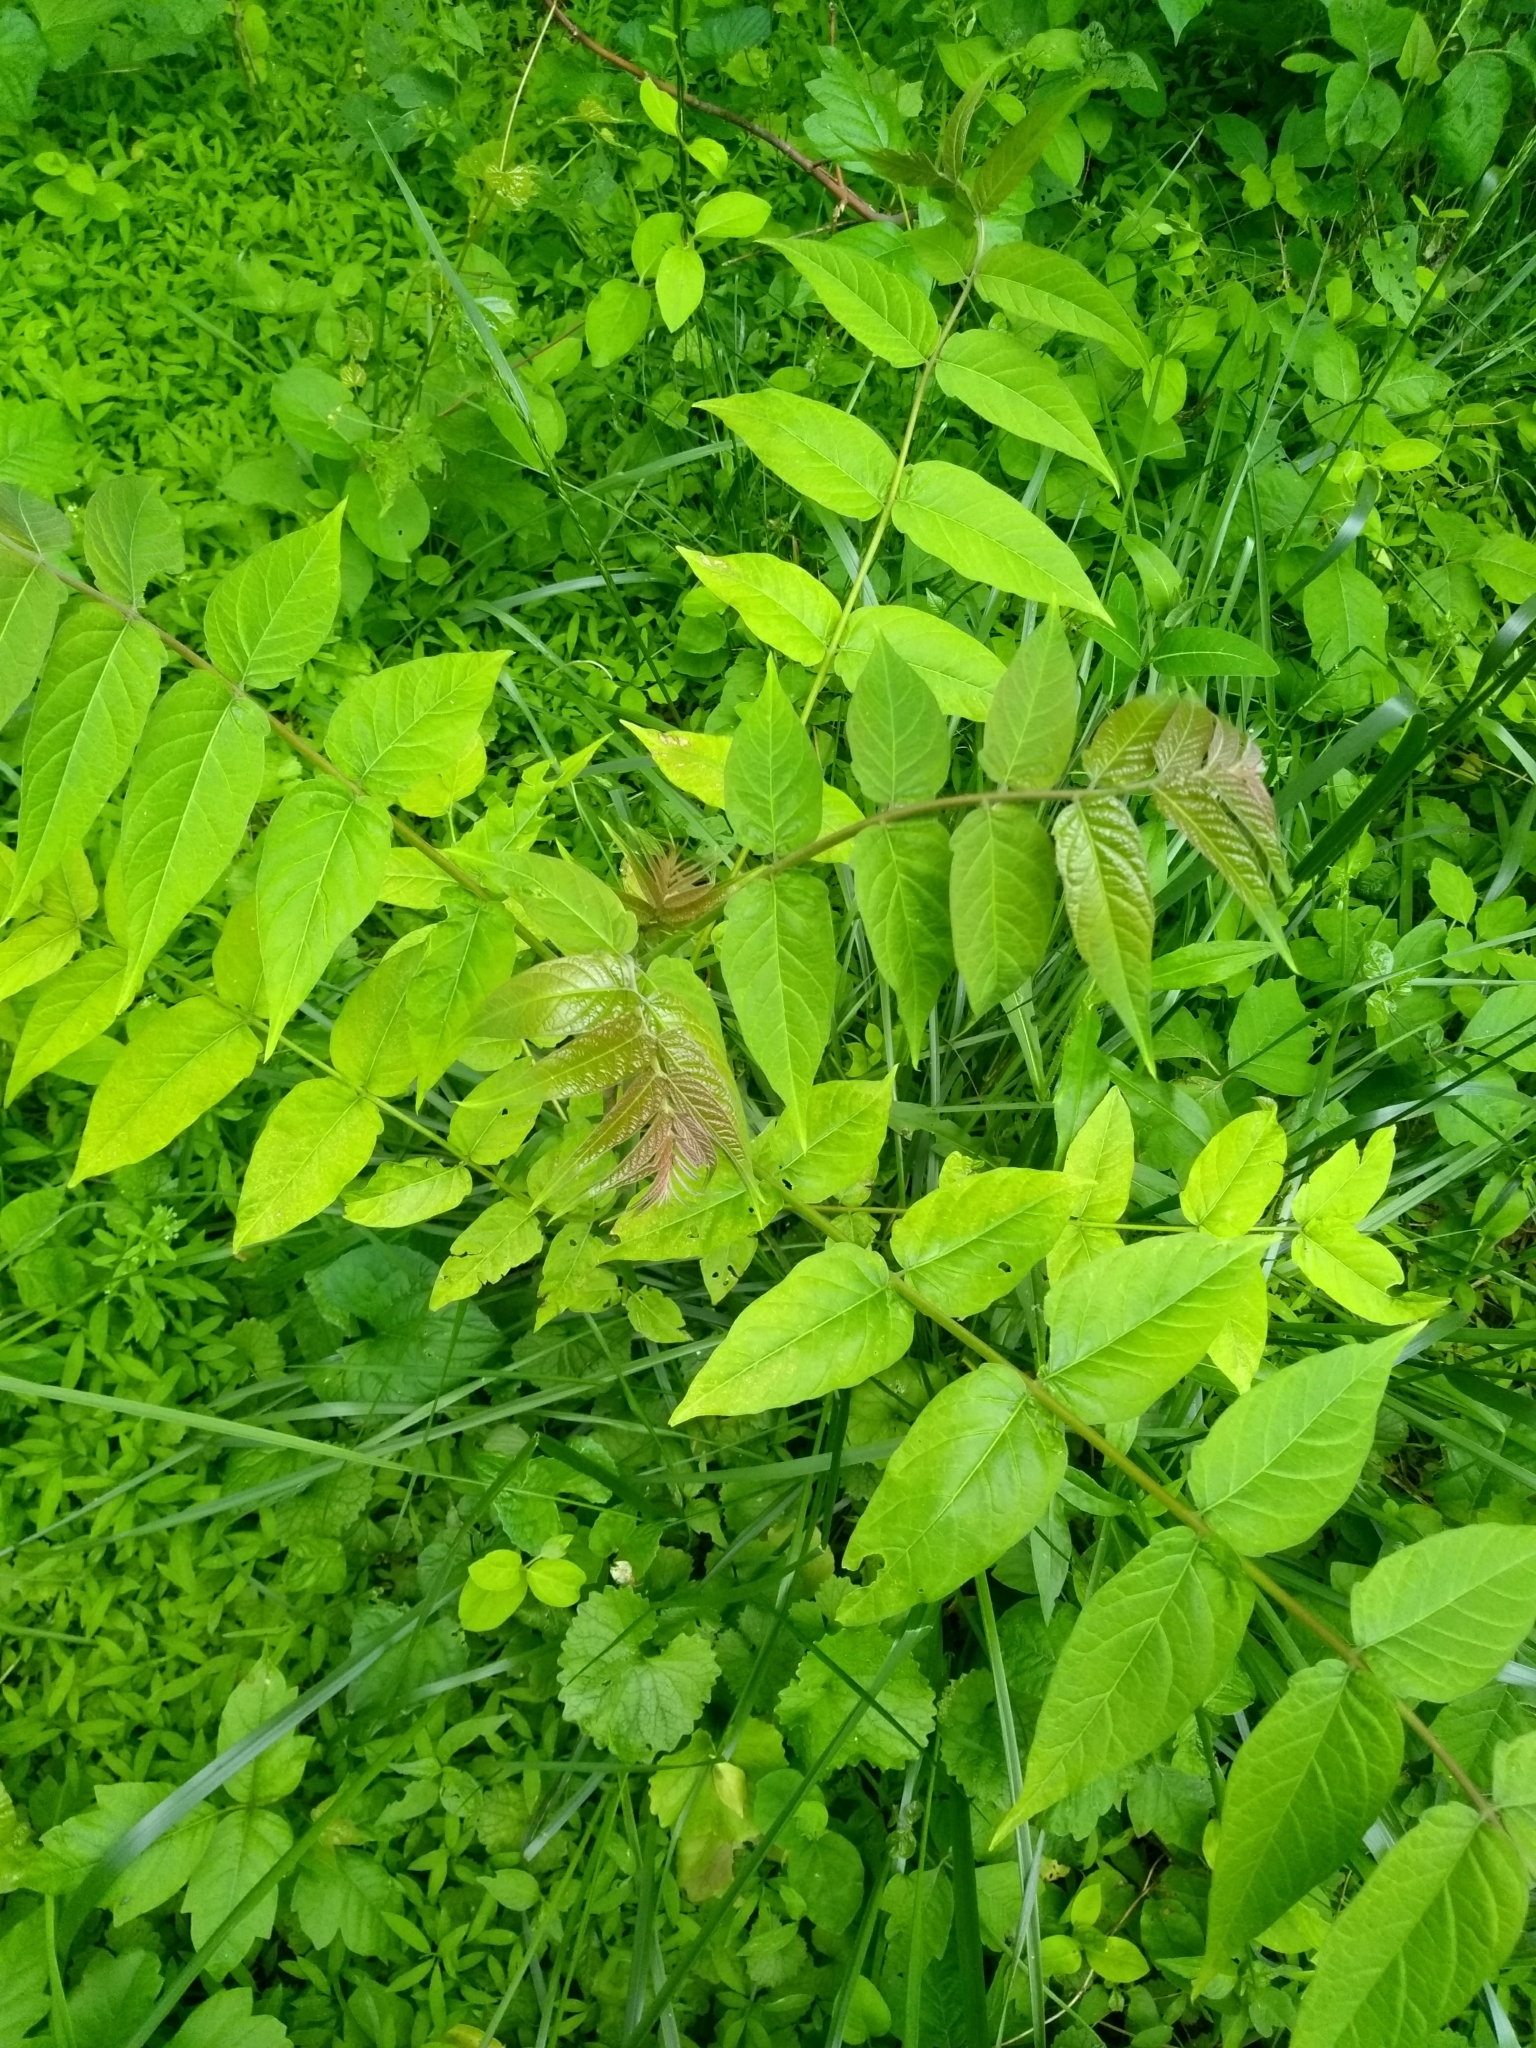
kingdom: Plantae
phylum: Tracheophyta
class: Magnoliopsida
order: Sapindales
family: Simaroubaceae
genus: Ailanthus
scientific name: Ailanthus altissima
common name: Tree-of-heaven
